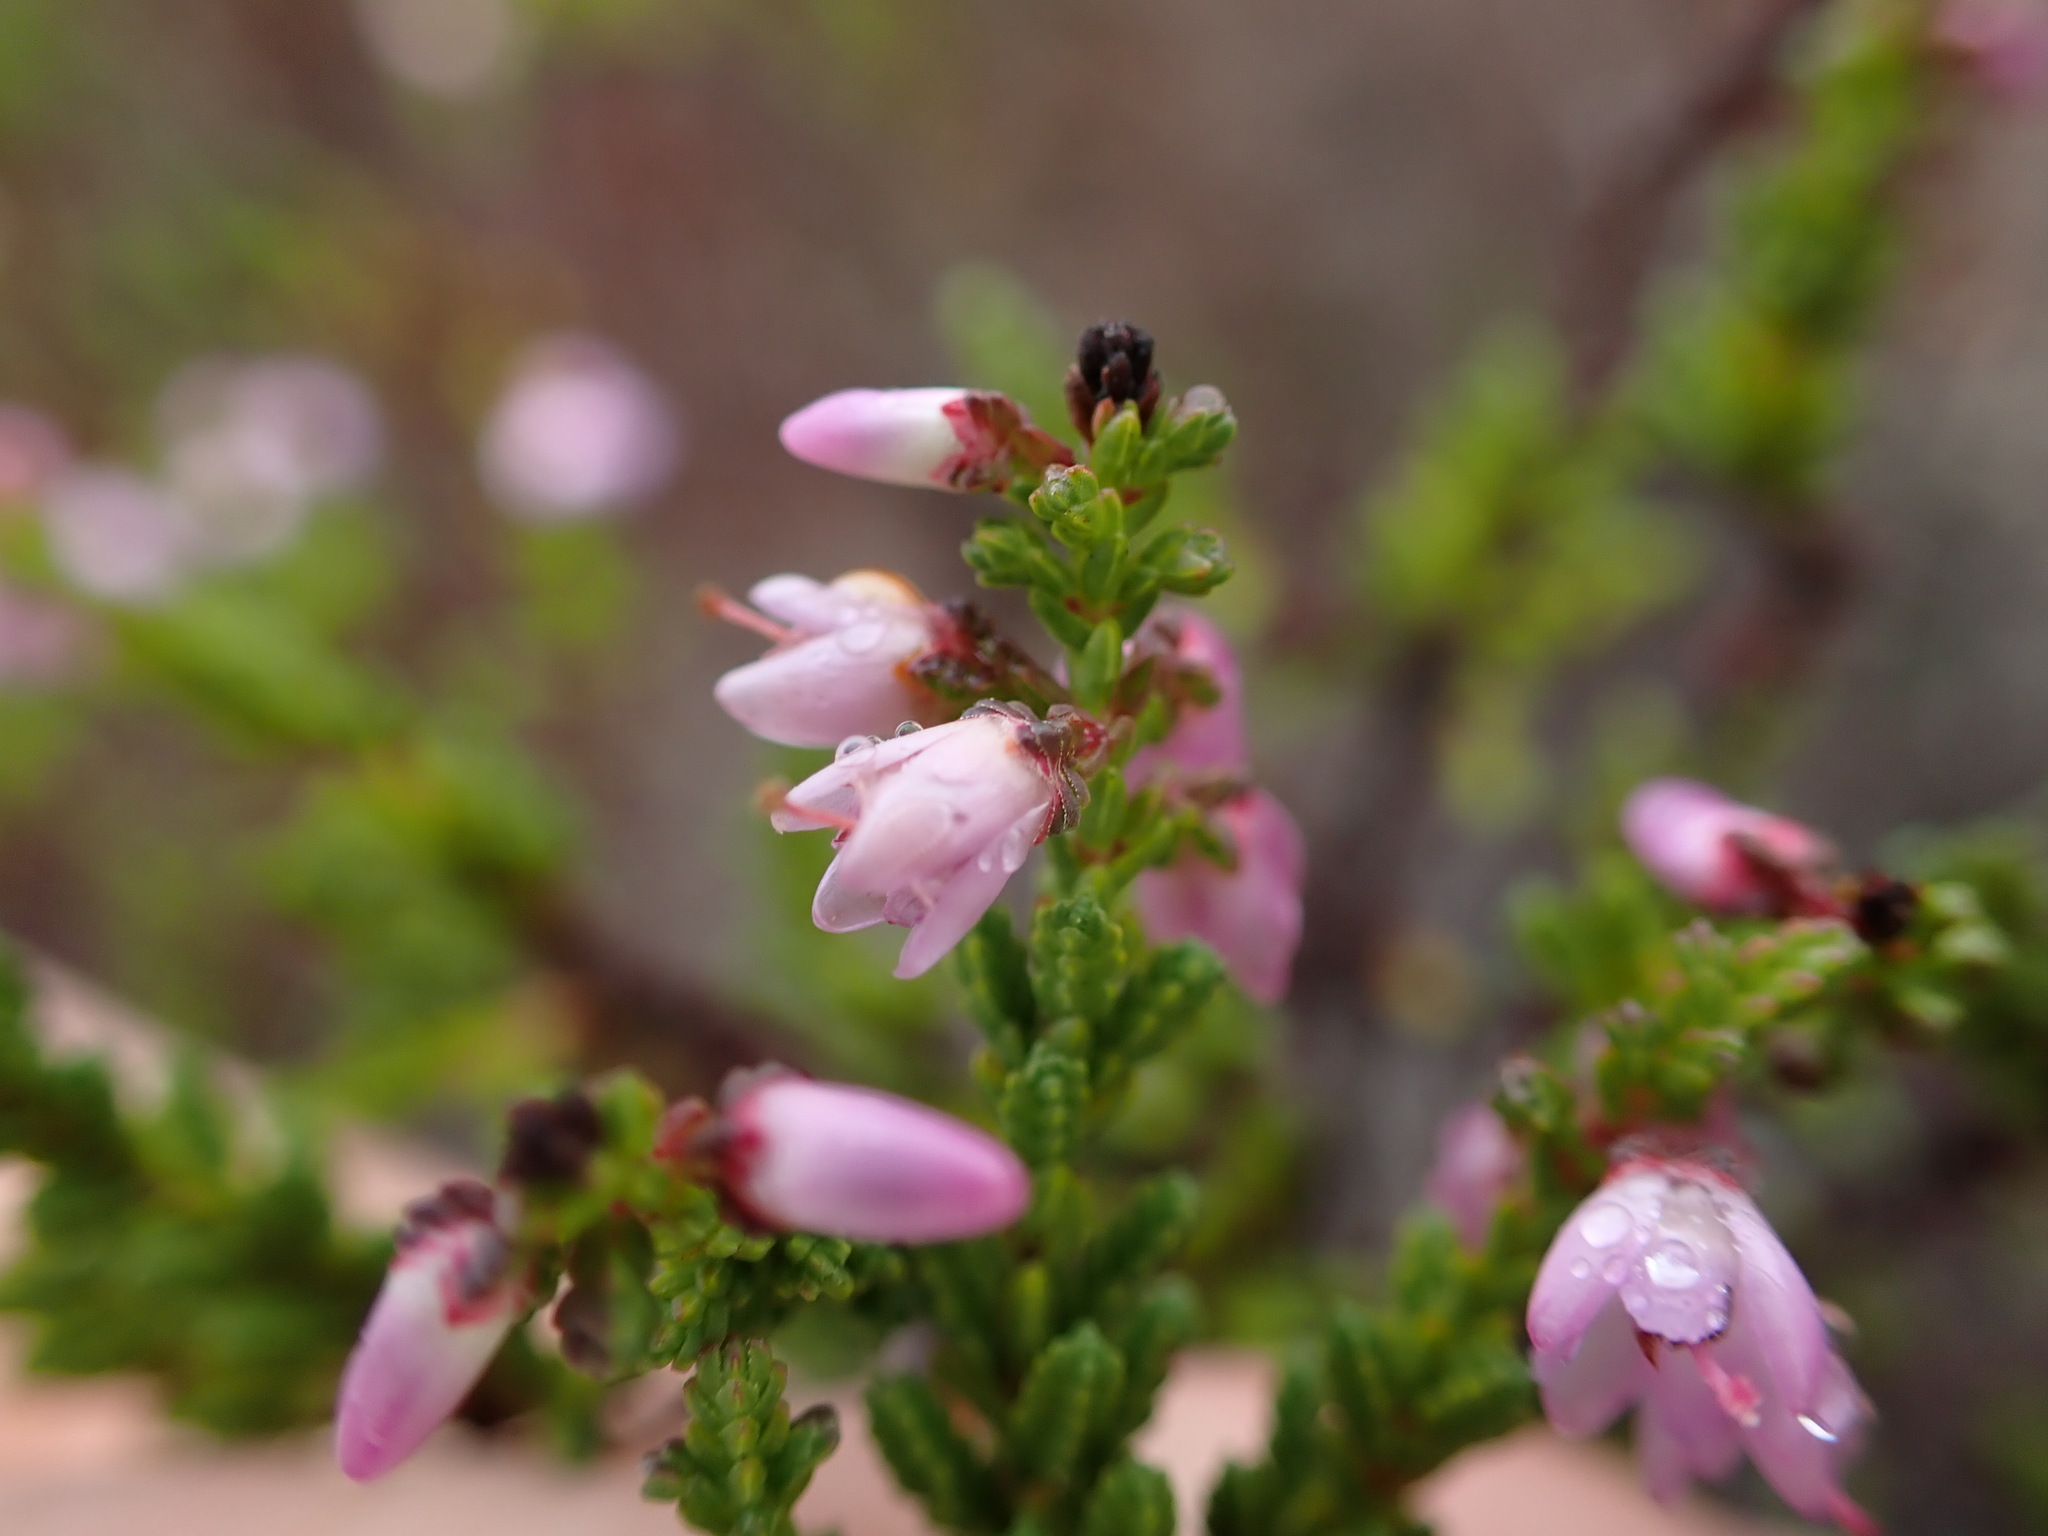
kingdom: Plantae
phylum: Tracheophyta
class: Magnoliopsida
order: Ericales
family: Ericaceae
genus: Calluna
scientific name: Calluna vulgaris
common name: Heather
